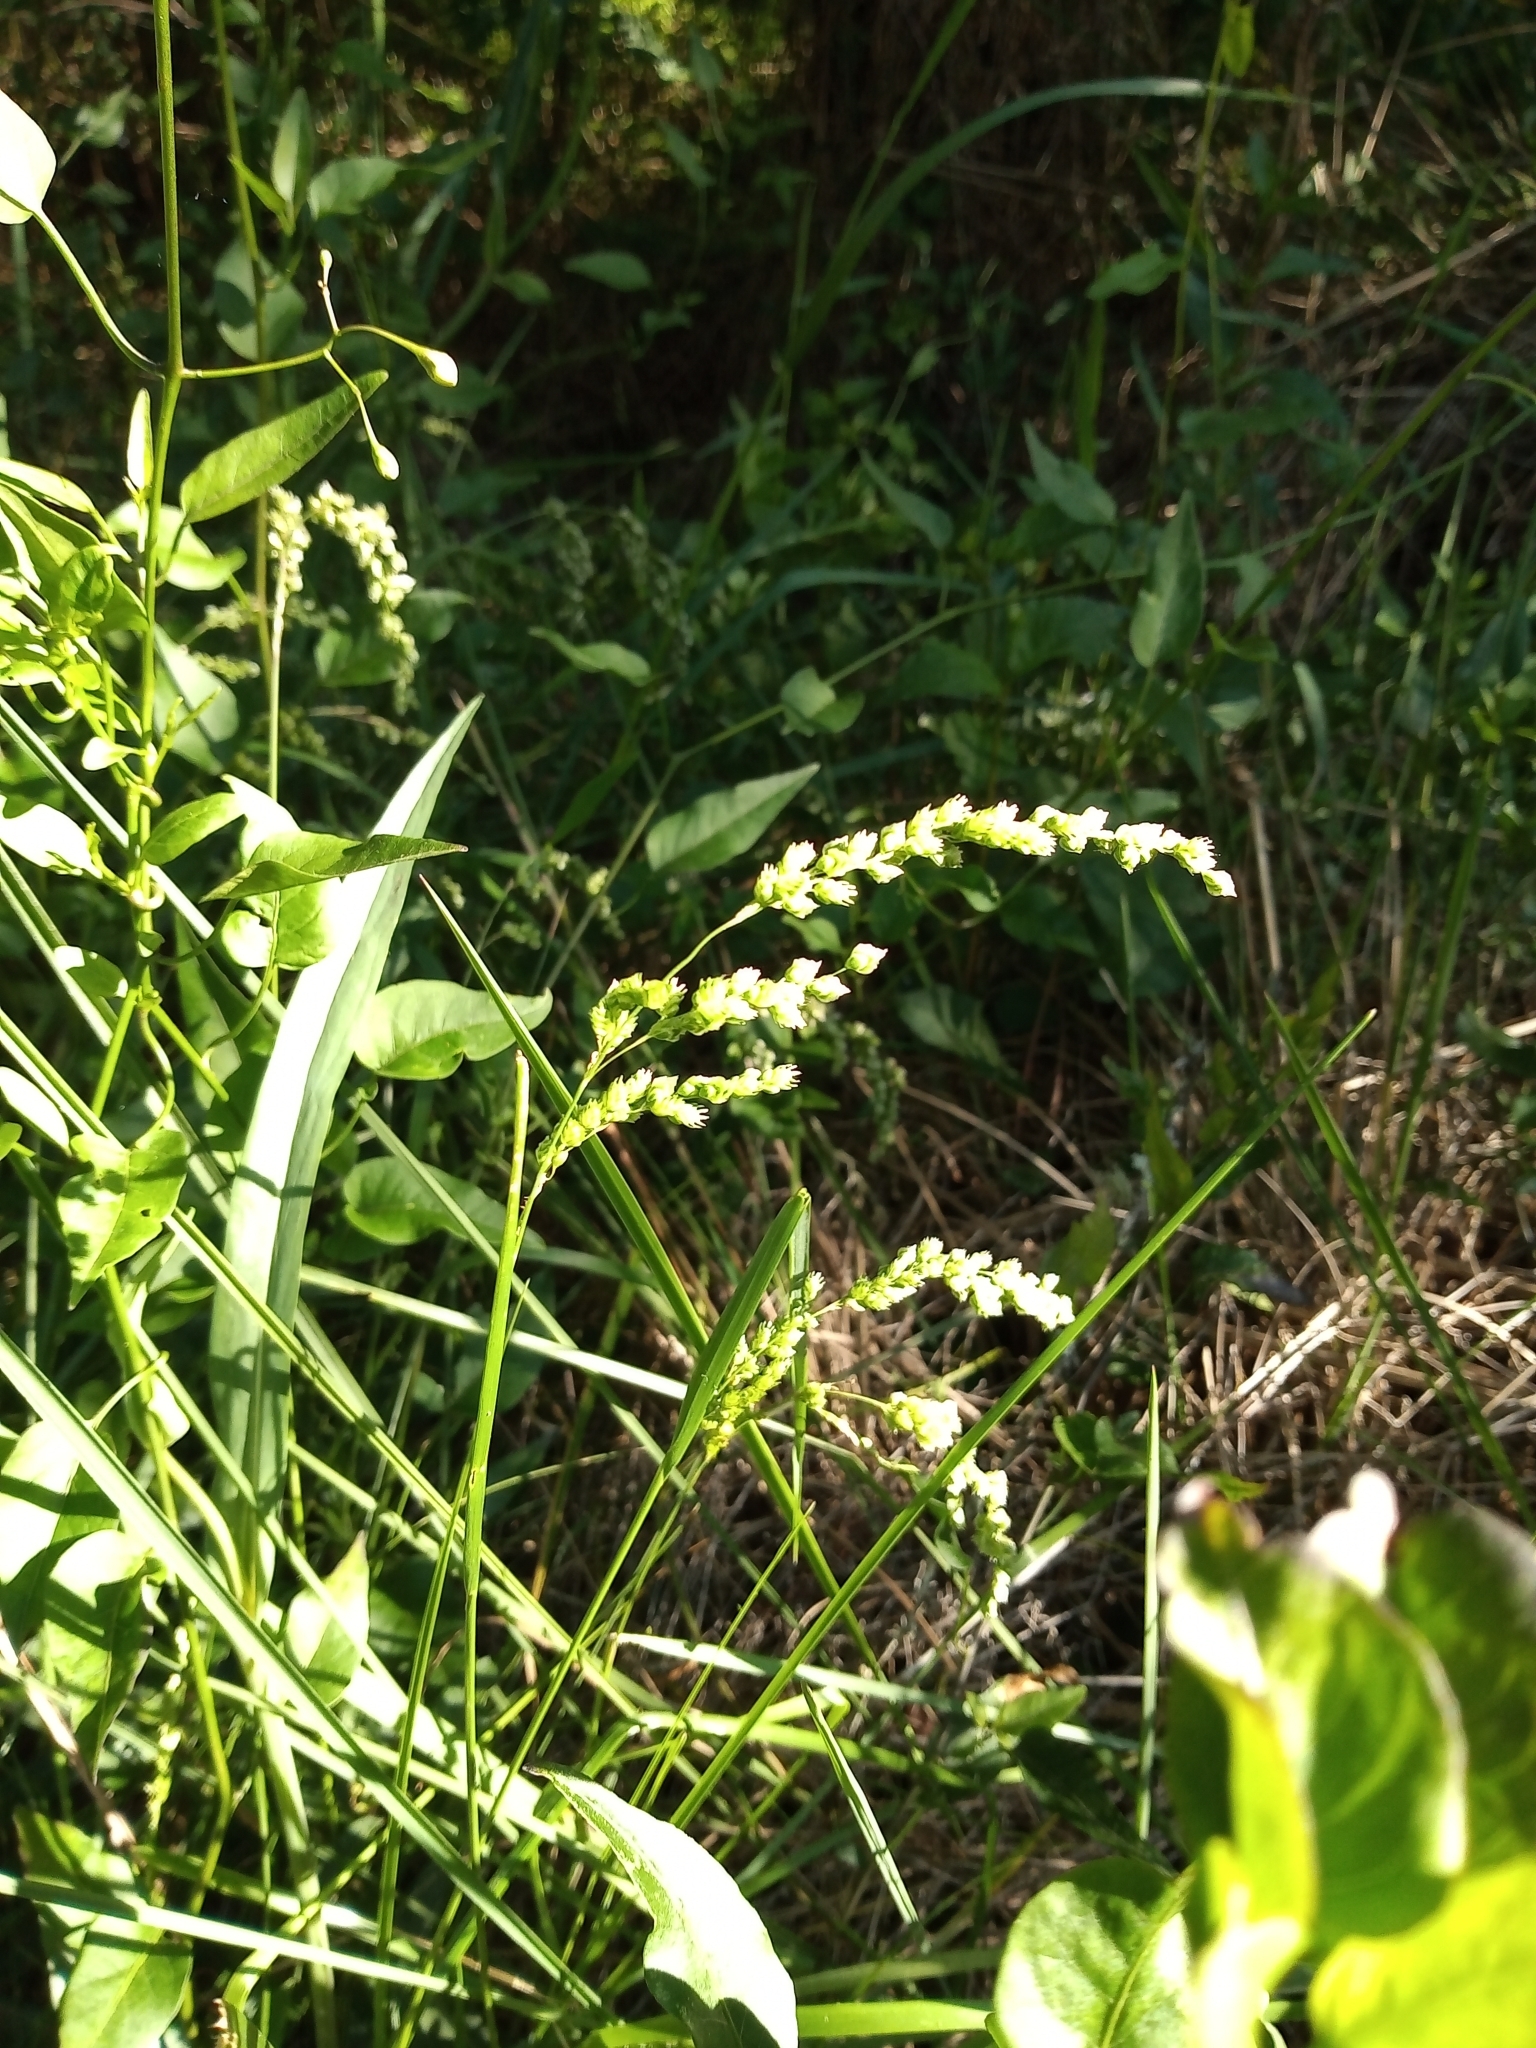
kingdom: Plantae
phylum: Tracheophyta
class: Liliopsida
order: Poales
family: Poaceae
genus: Chascolytrum
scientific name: Chascolytrum subaristatum
